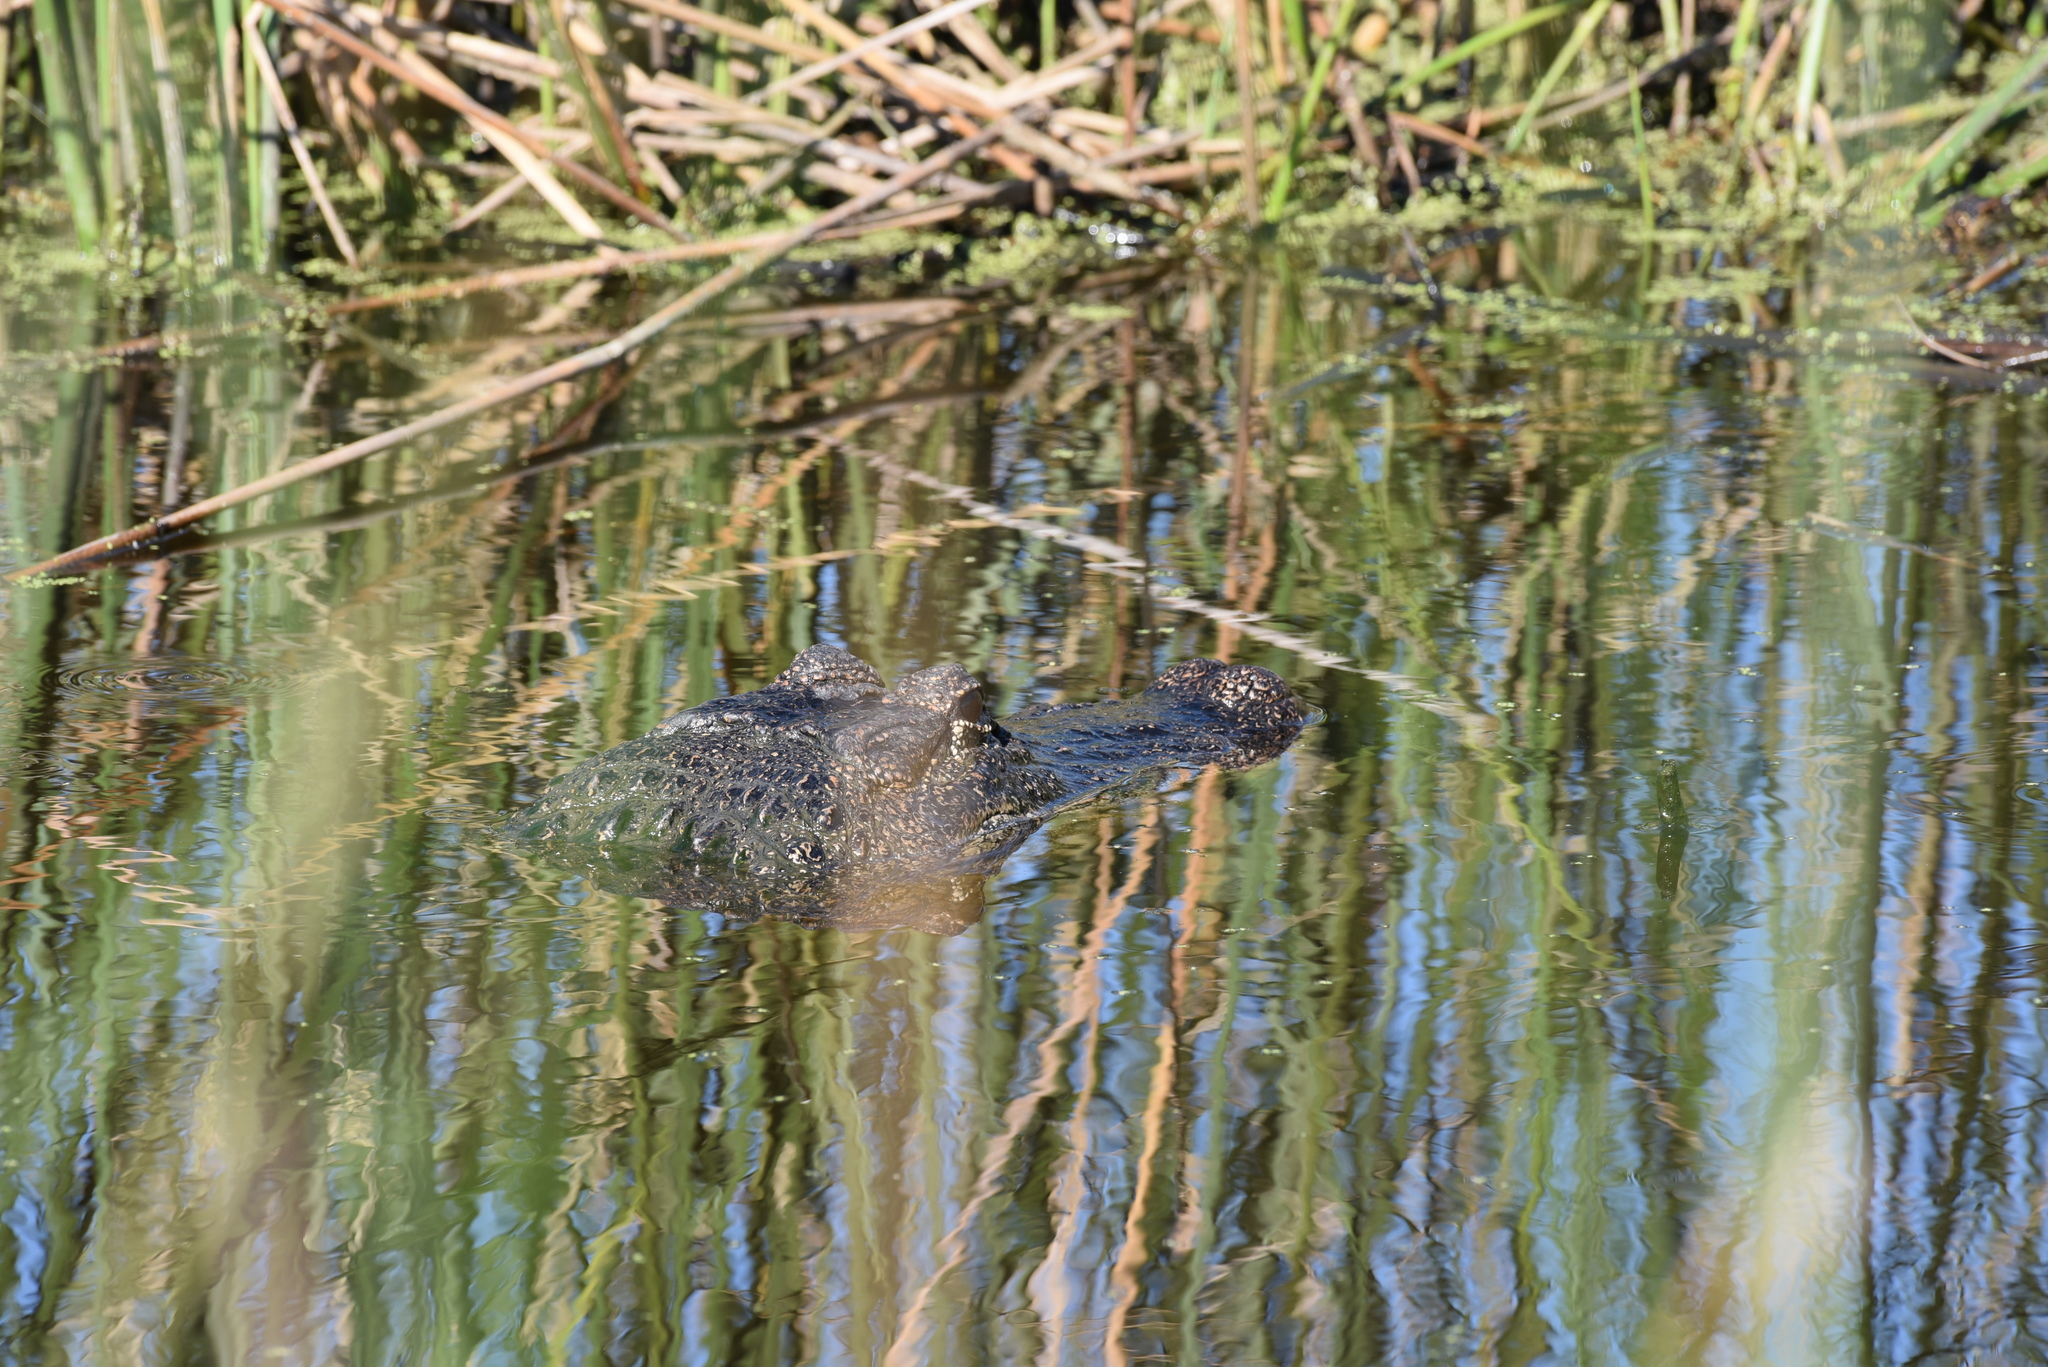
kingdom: Animalia
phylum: Chordata
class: Crocodylia
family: Alligatoridae
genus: Alligator
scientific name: Alligator mississippiensis
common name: American alligator
